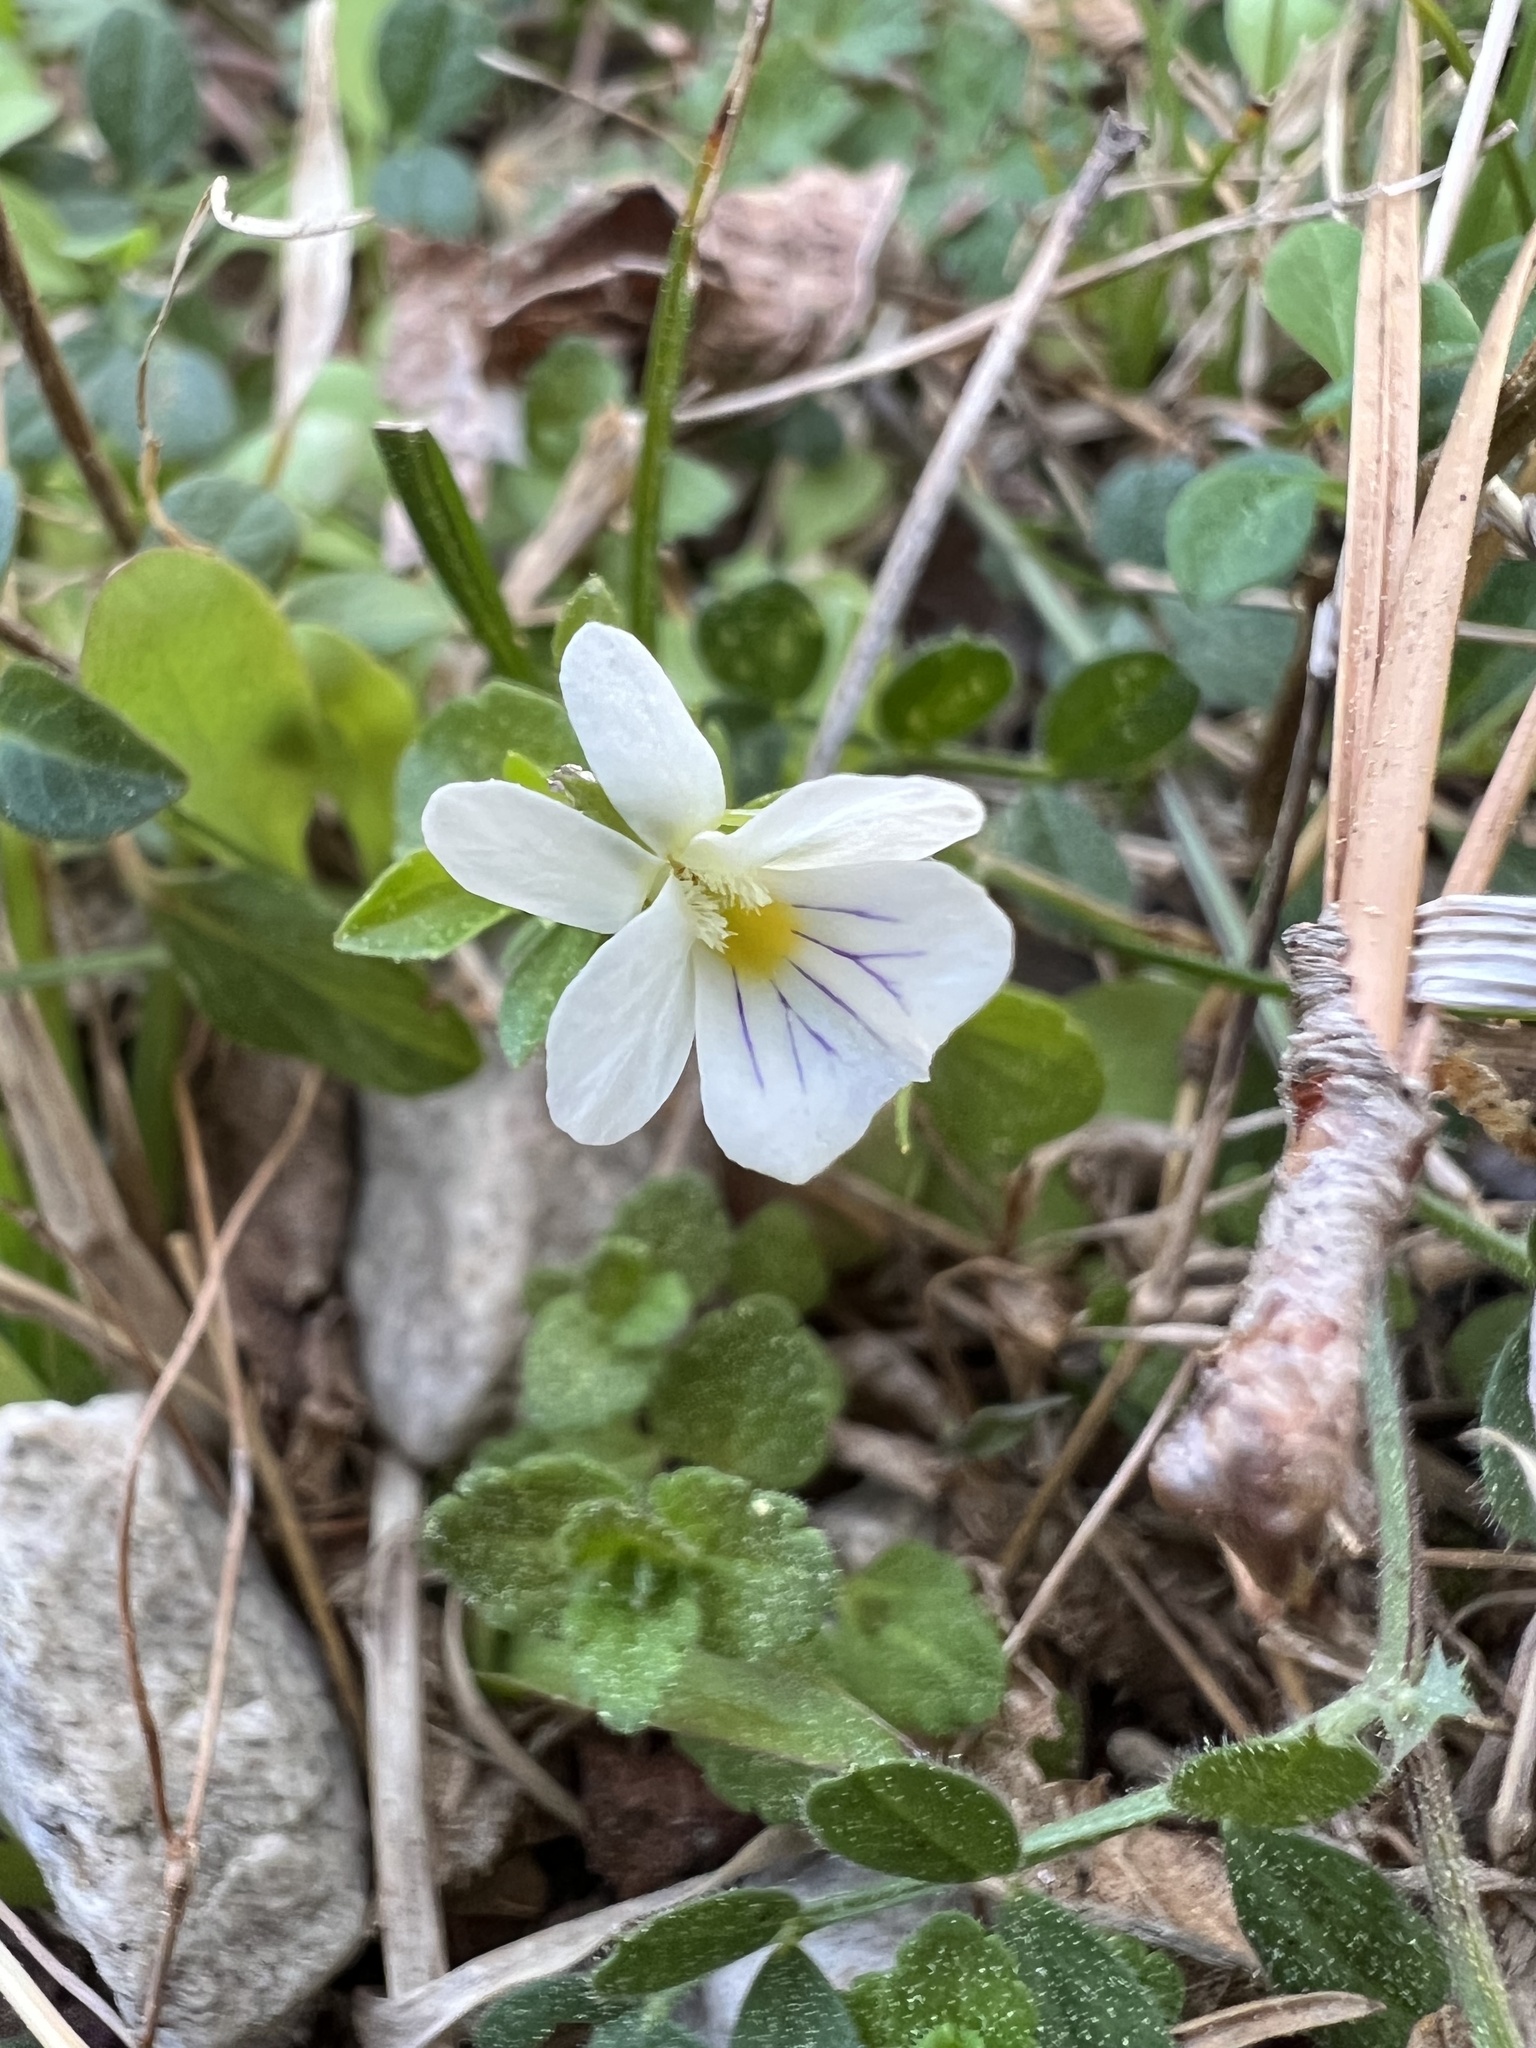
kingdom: Plantae
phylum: Tracheophyta
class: Magnoliopsida
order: Malpighiales
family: Violaceae
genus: Viola
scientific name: Viola rafinesquei
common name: American field pansy
